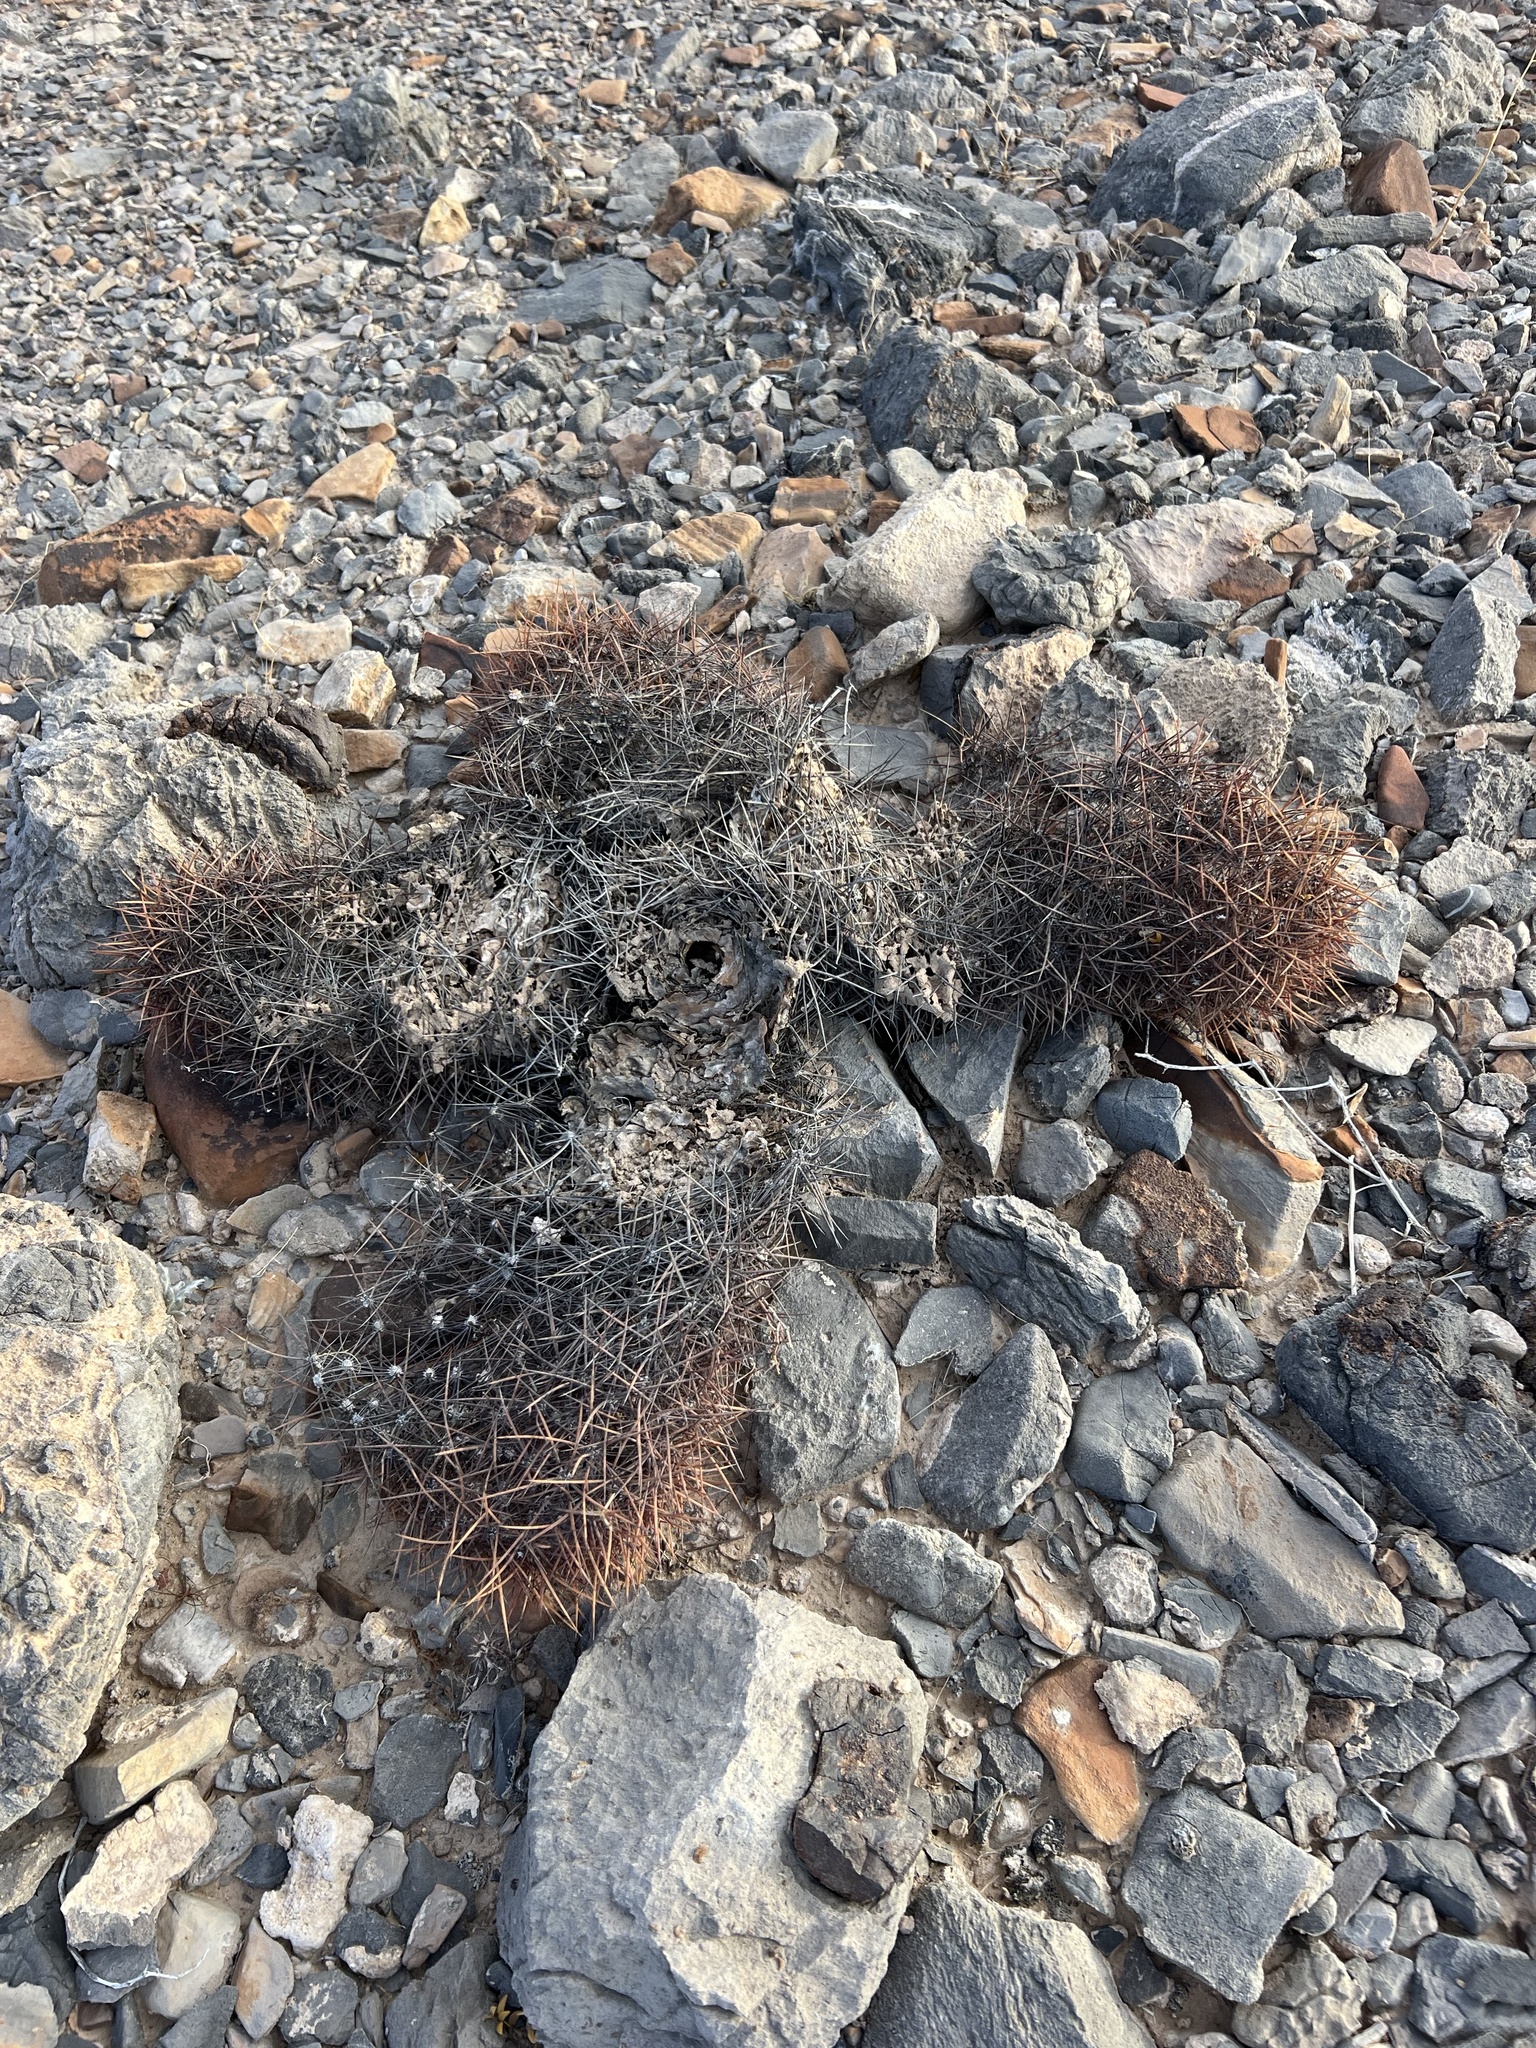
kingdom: Plantae
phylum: Tracheophyta
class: Magnoliopsida
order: Caryophyllales
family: Cactaceae
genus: Sclerocactus
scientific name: Sclerocactus johnsonii
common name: Eight-spine fishhook cactus
